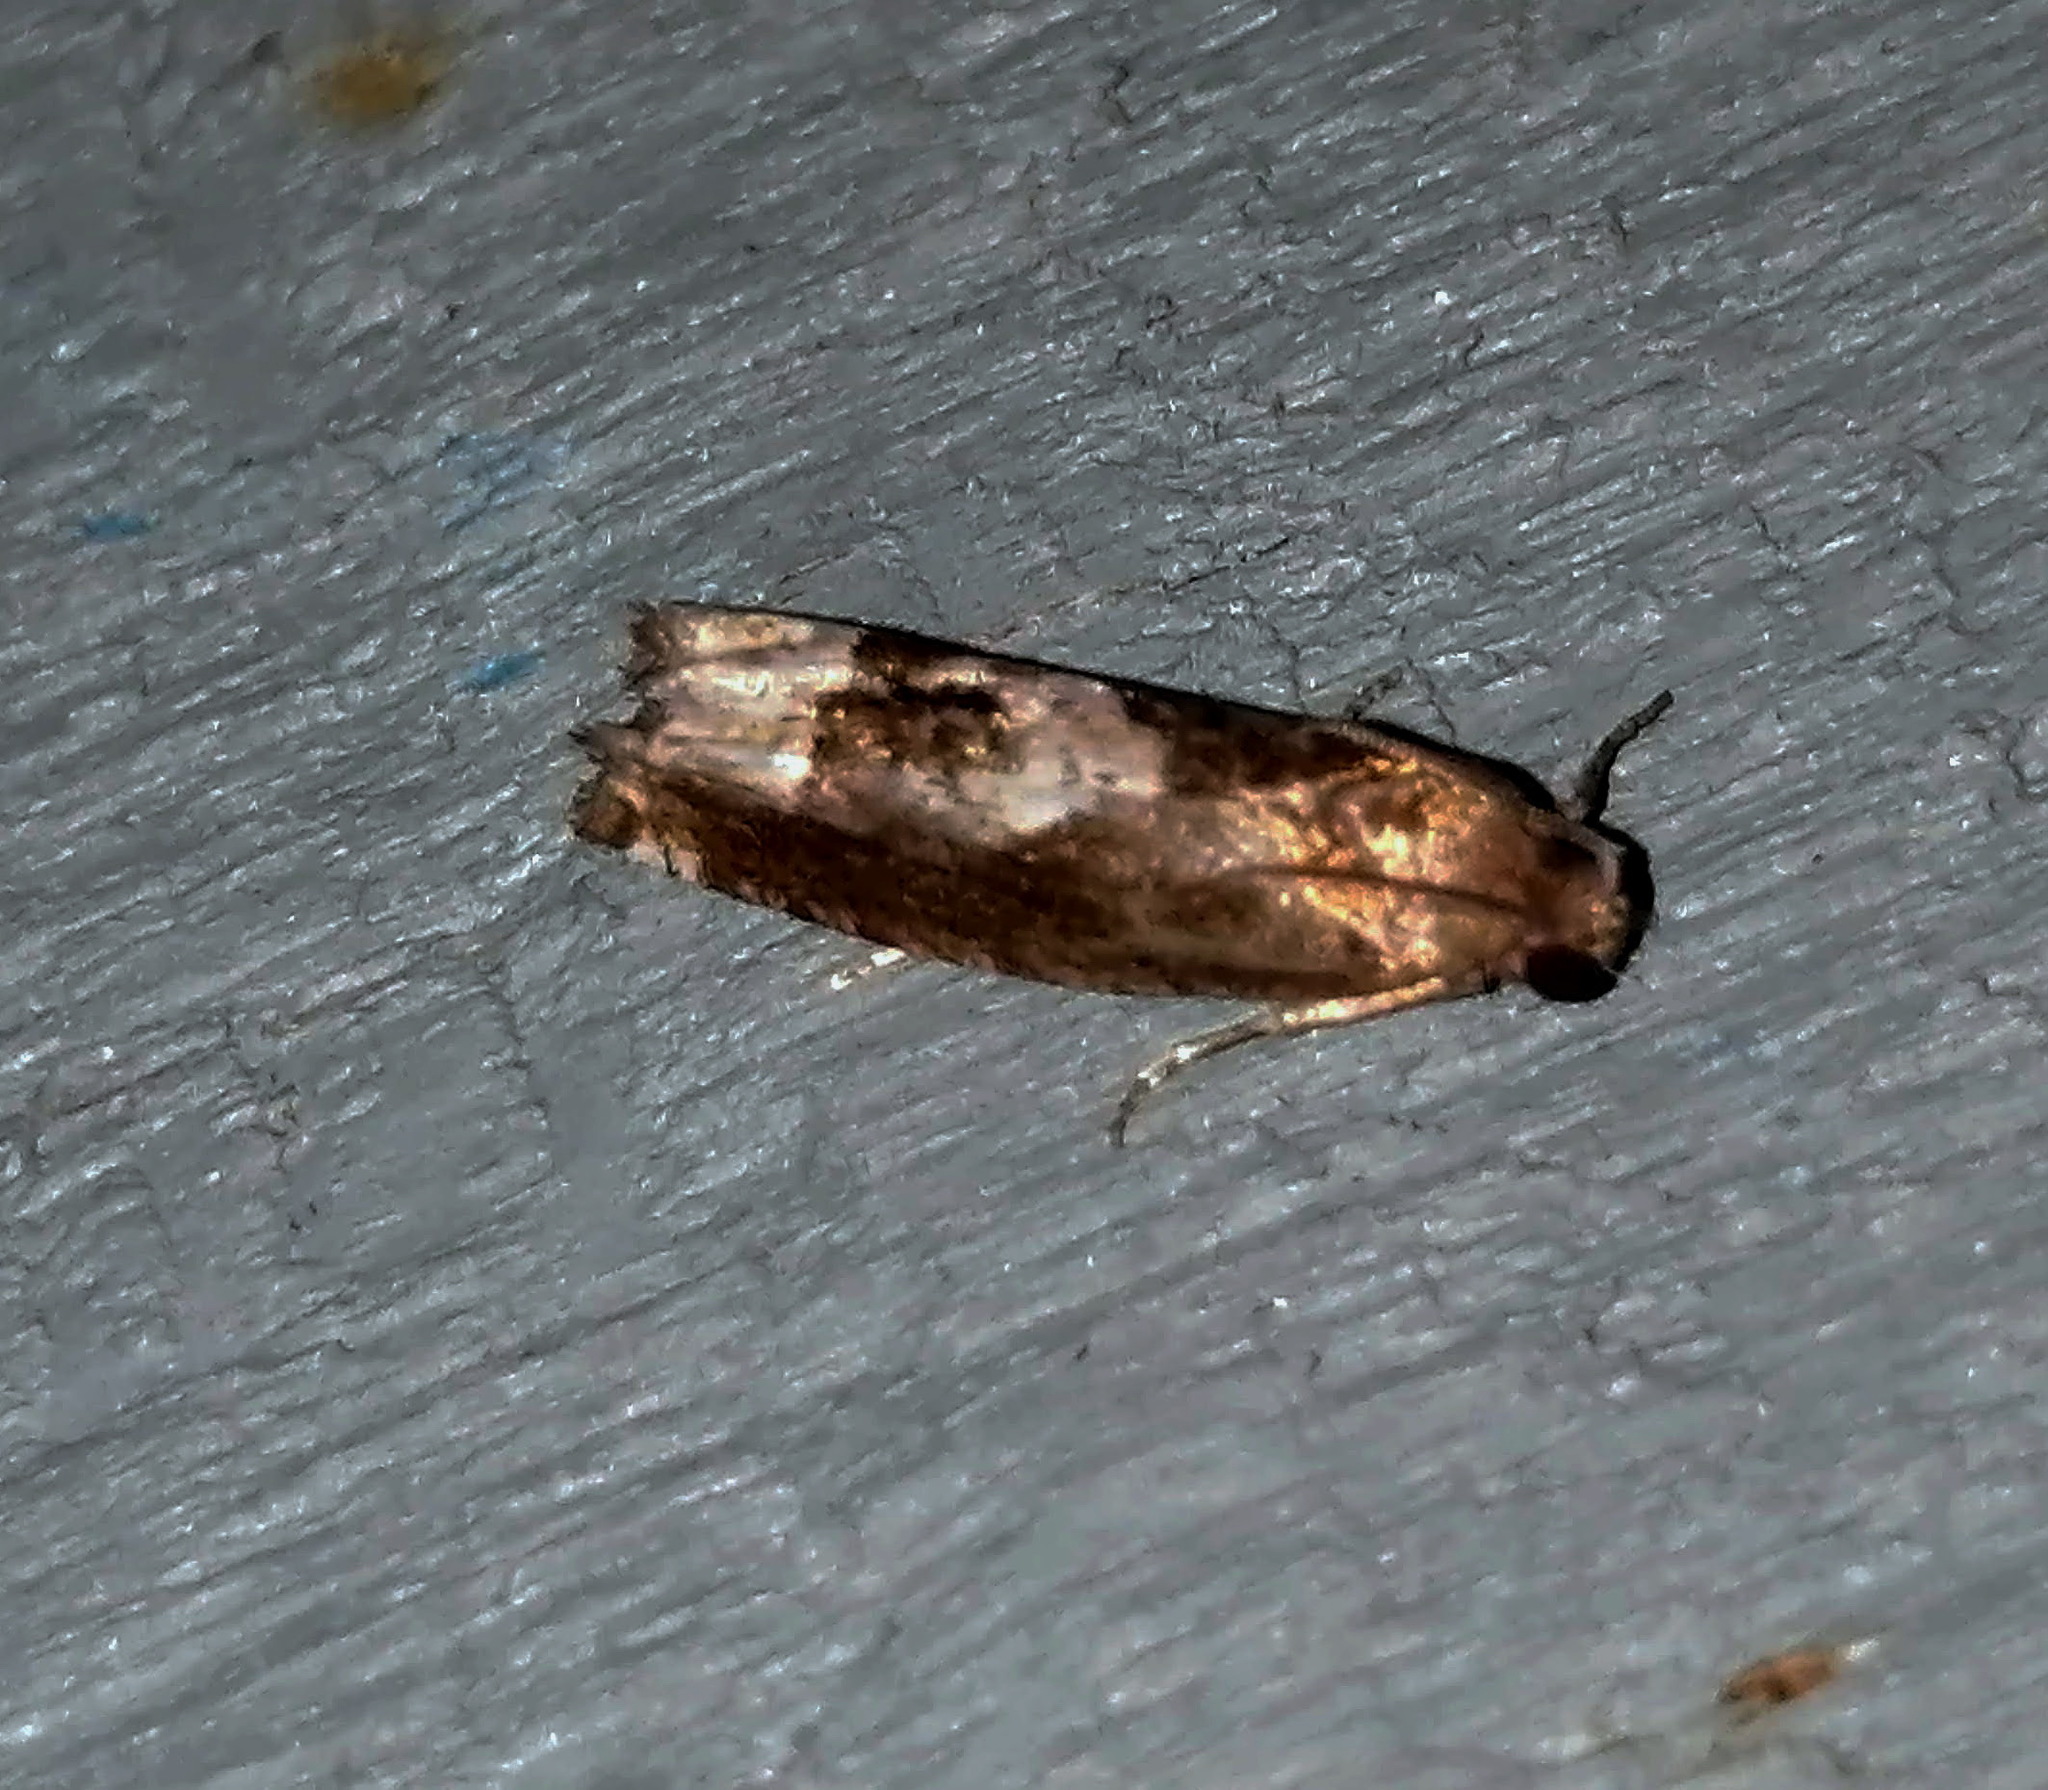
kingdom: Animalia
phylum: Arthropoda
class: Insecta
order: Lepidoptera
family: Tortricidae
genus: Epiblema
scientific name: Epiblema otiosana
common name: Bidens borer moth
